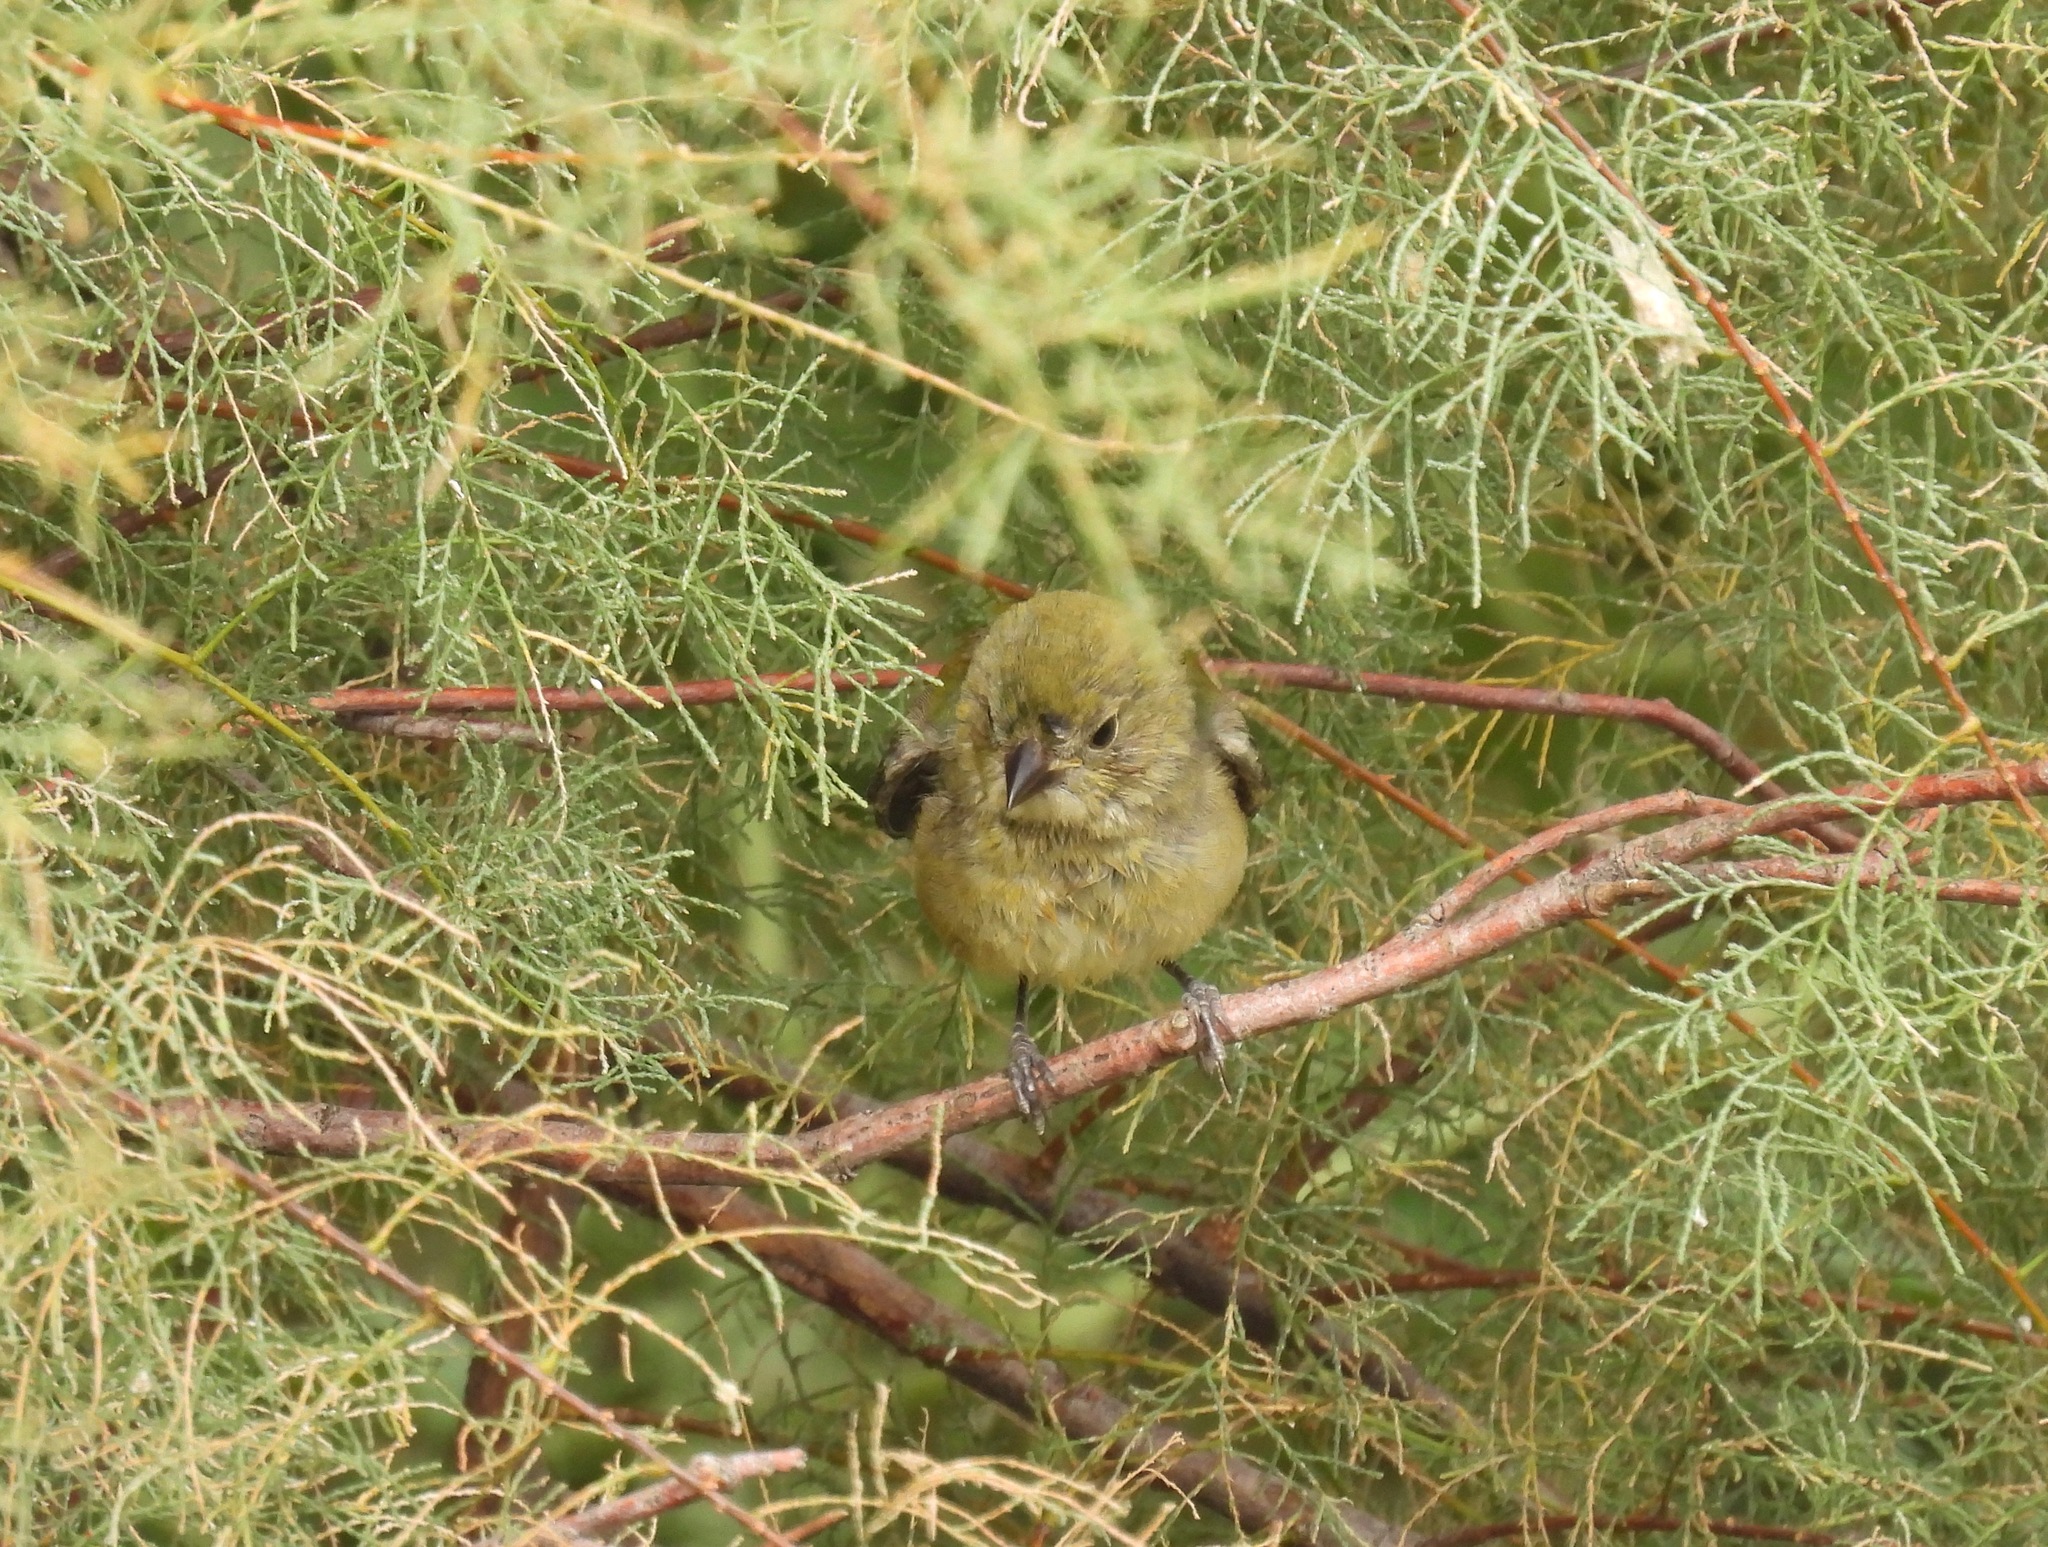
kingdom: Animalia
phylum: Chordata
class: Aves
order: Passeriformes
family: Cardinalidae
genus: Passerina
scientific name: Passerina ciris
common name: Painted bunting
